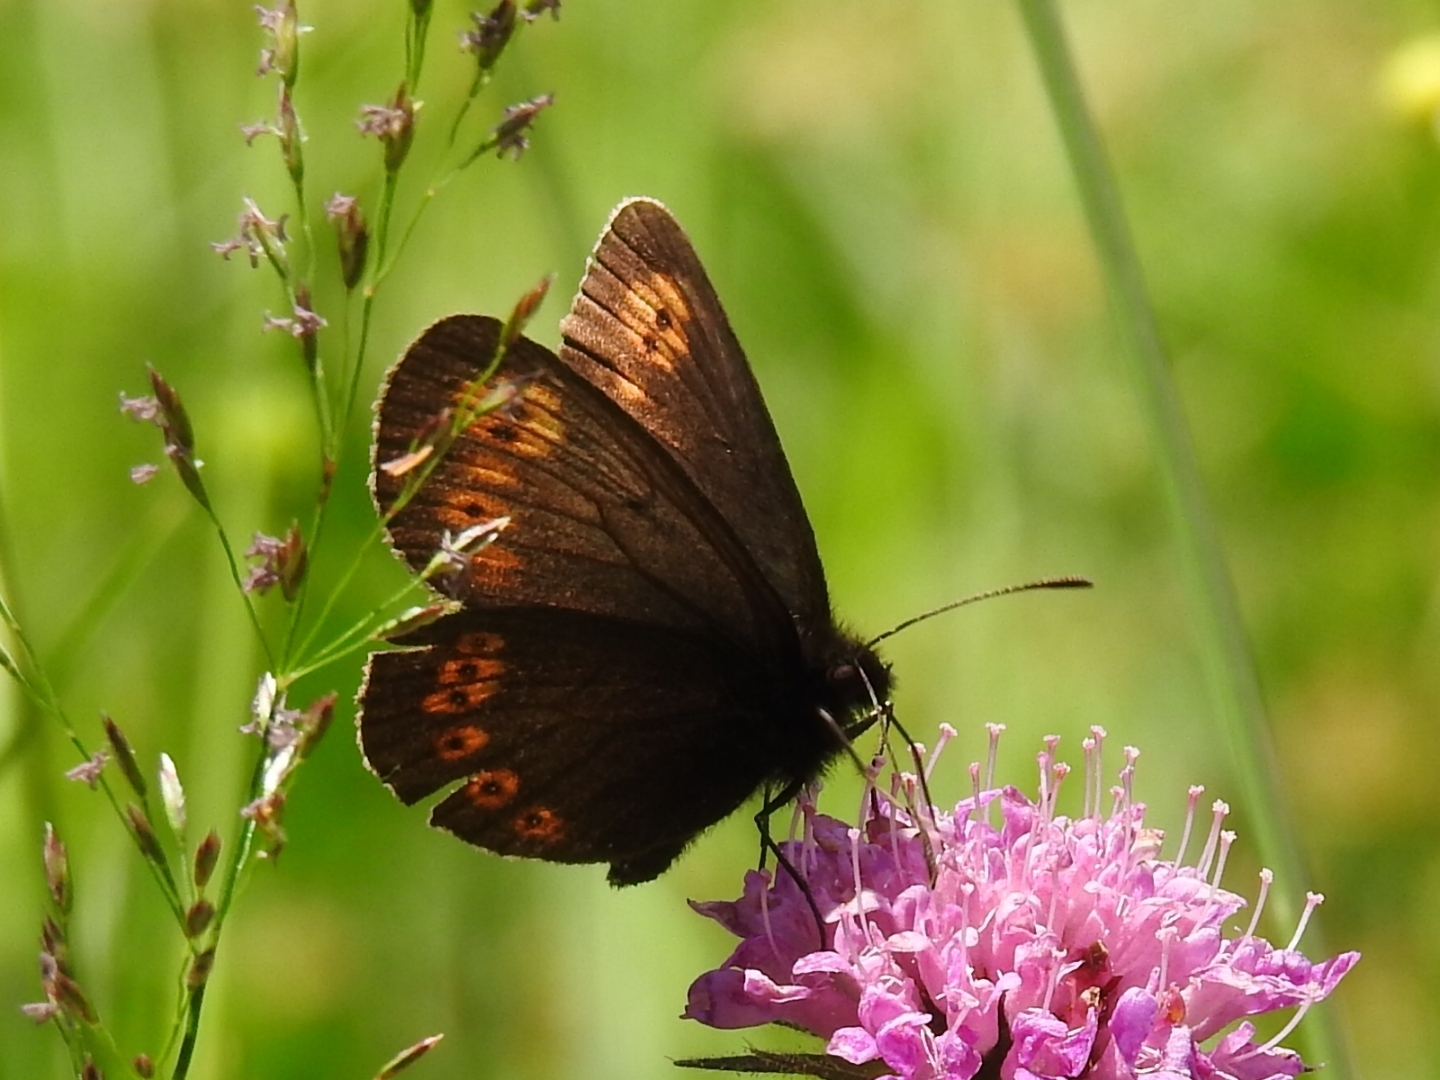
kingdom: Animalia
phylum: Arthropoda
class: Insecta
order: Lepidoptera
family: Nymphalidae
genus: Erebia
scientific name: Erebia alberganus
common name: Almond-eyed ringlet
